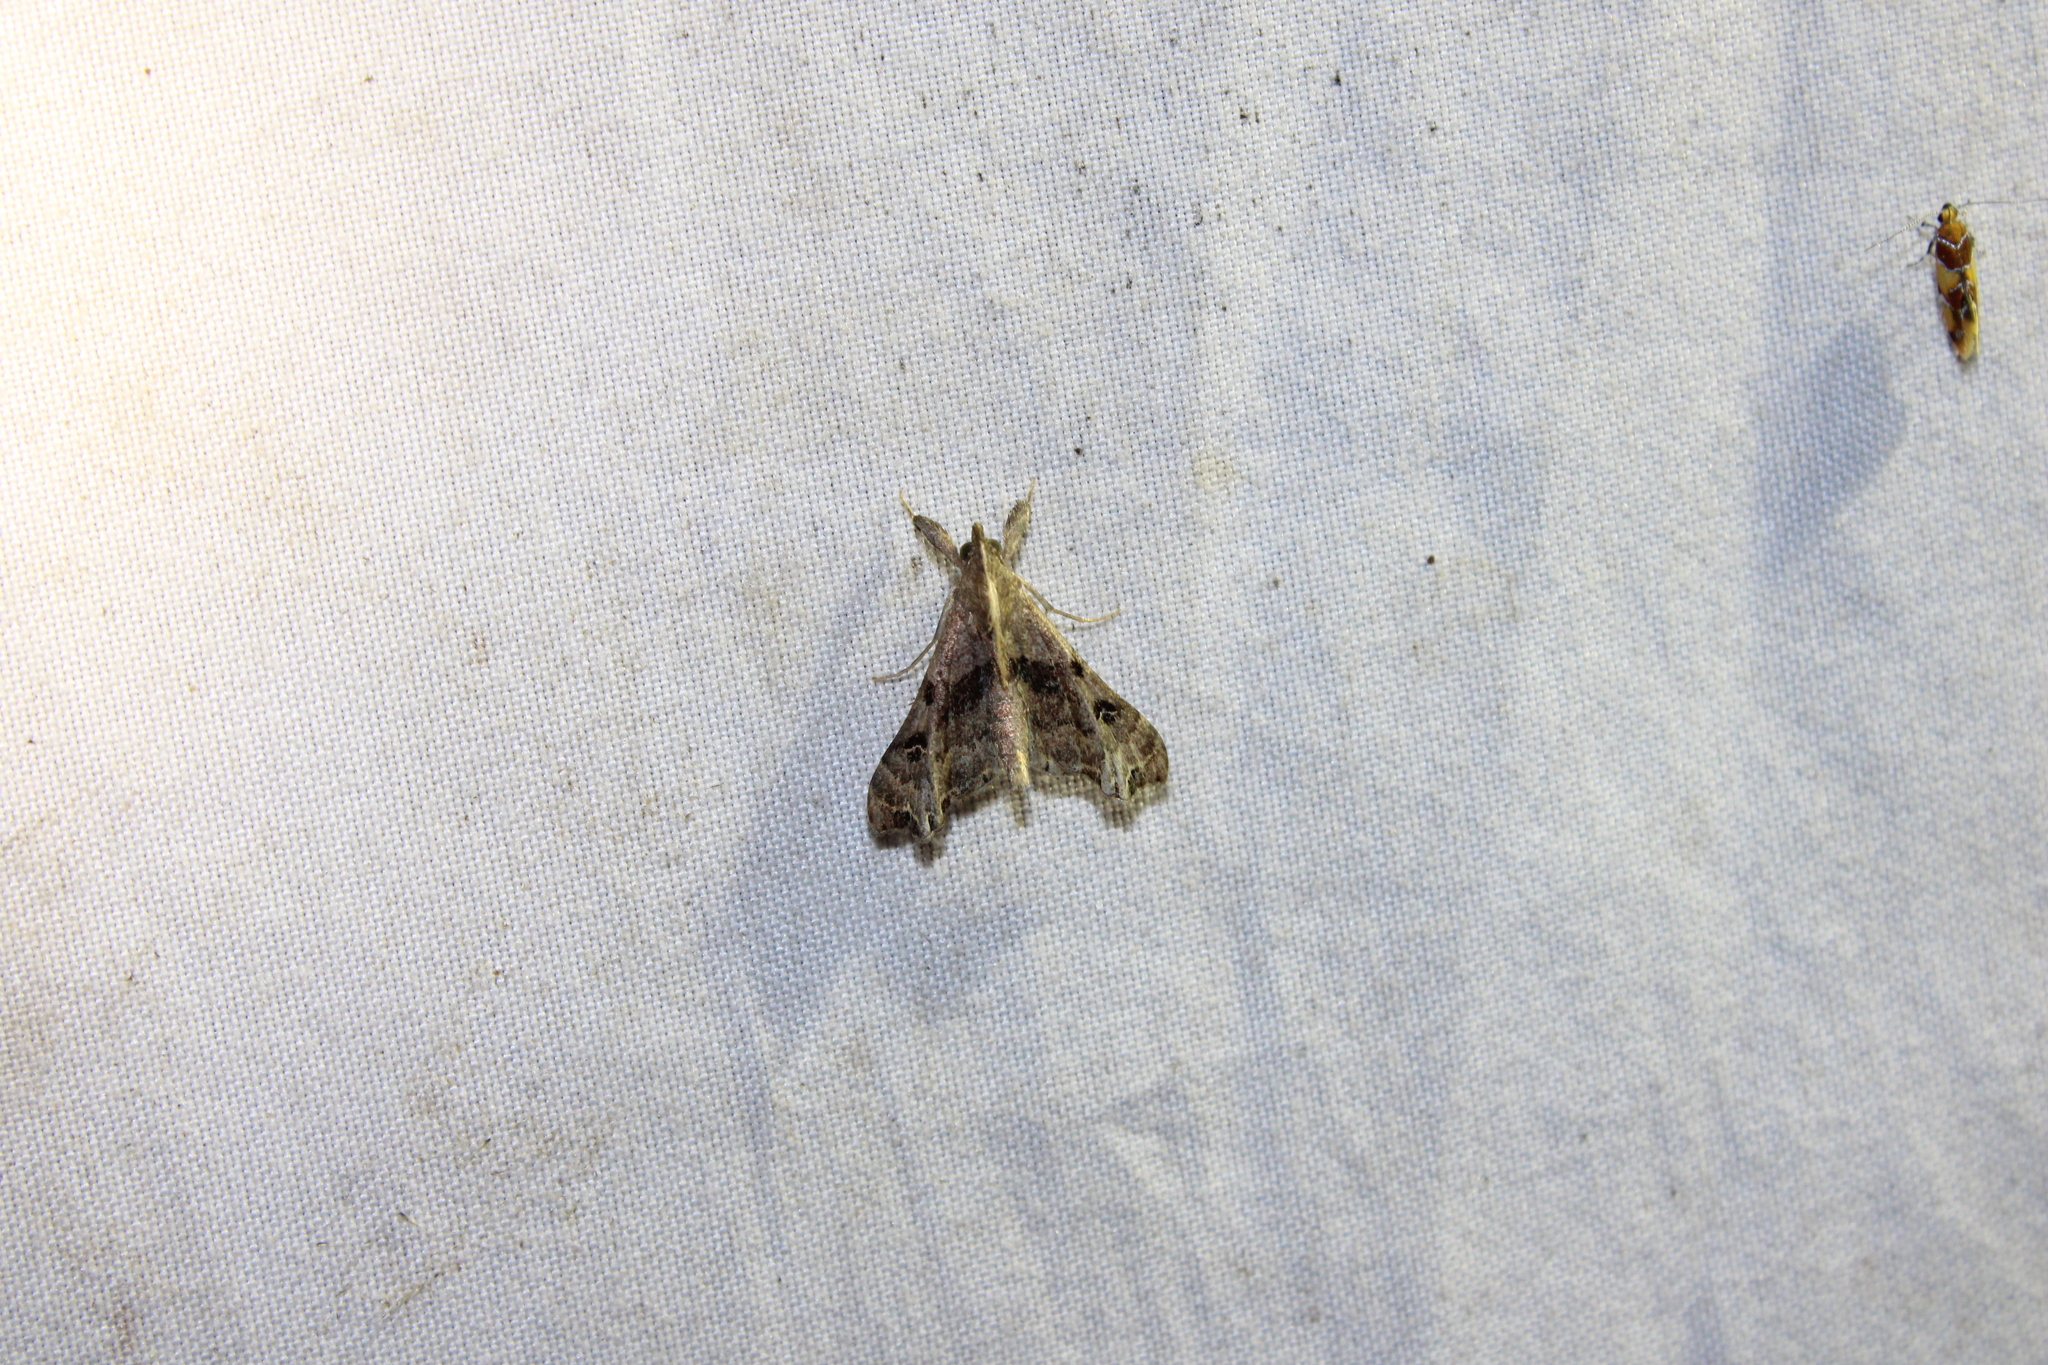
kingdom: Animalia
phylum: Arthropoda
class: Insecta
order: Lepidoptera
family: Erebidae
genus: Palthis
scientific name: Palthis asopialis
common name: Faint-spotted palthis moth
